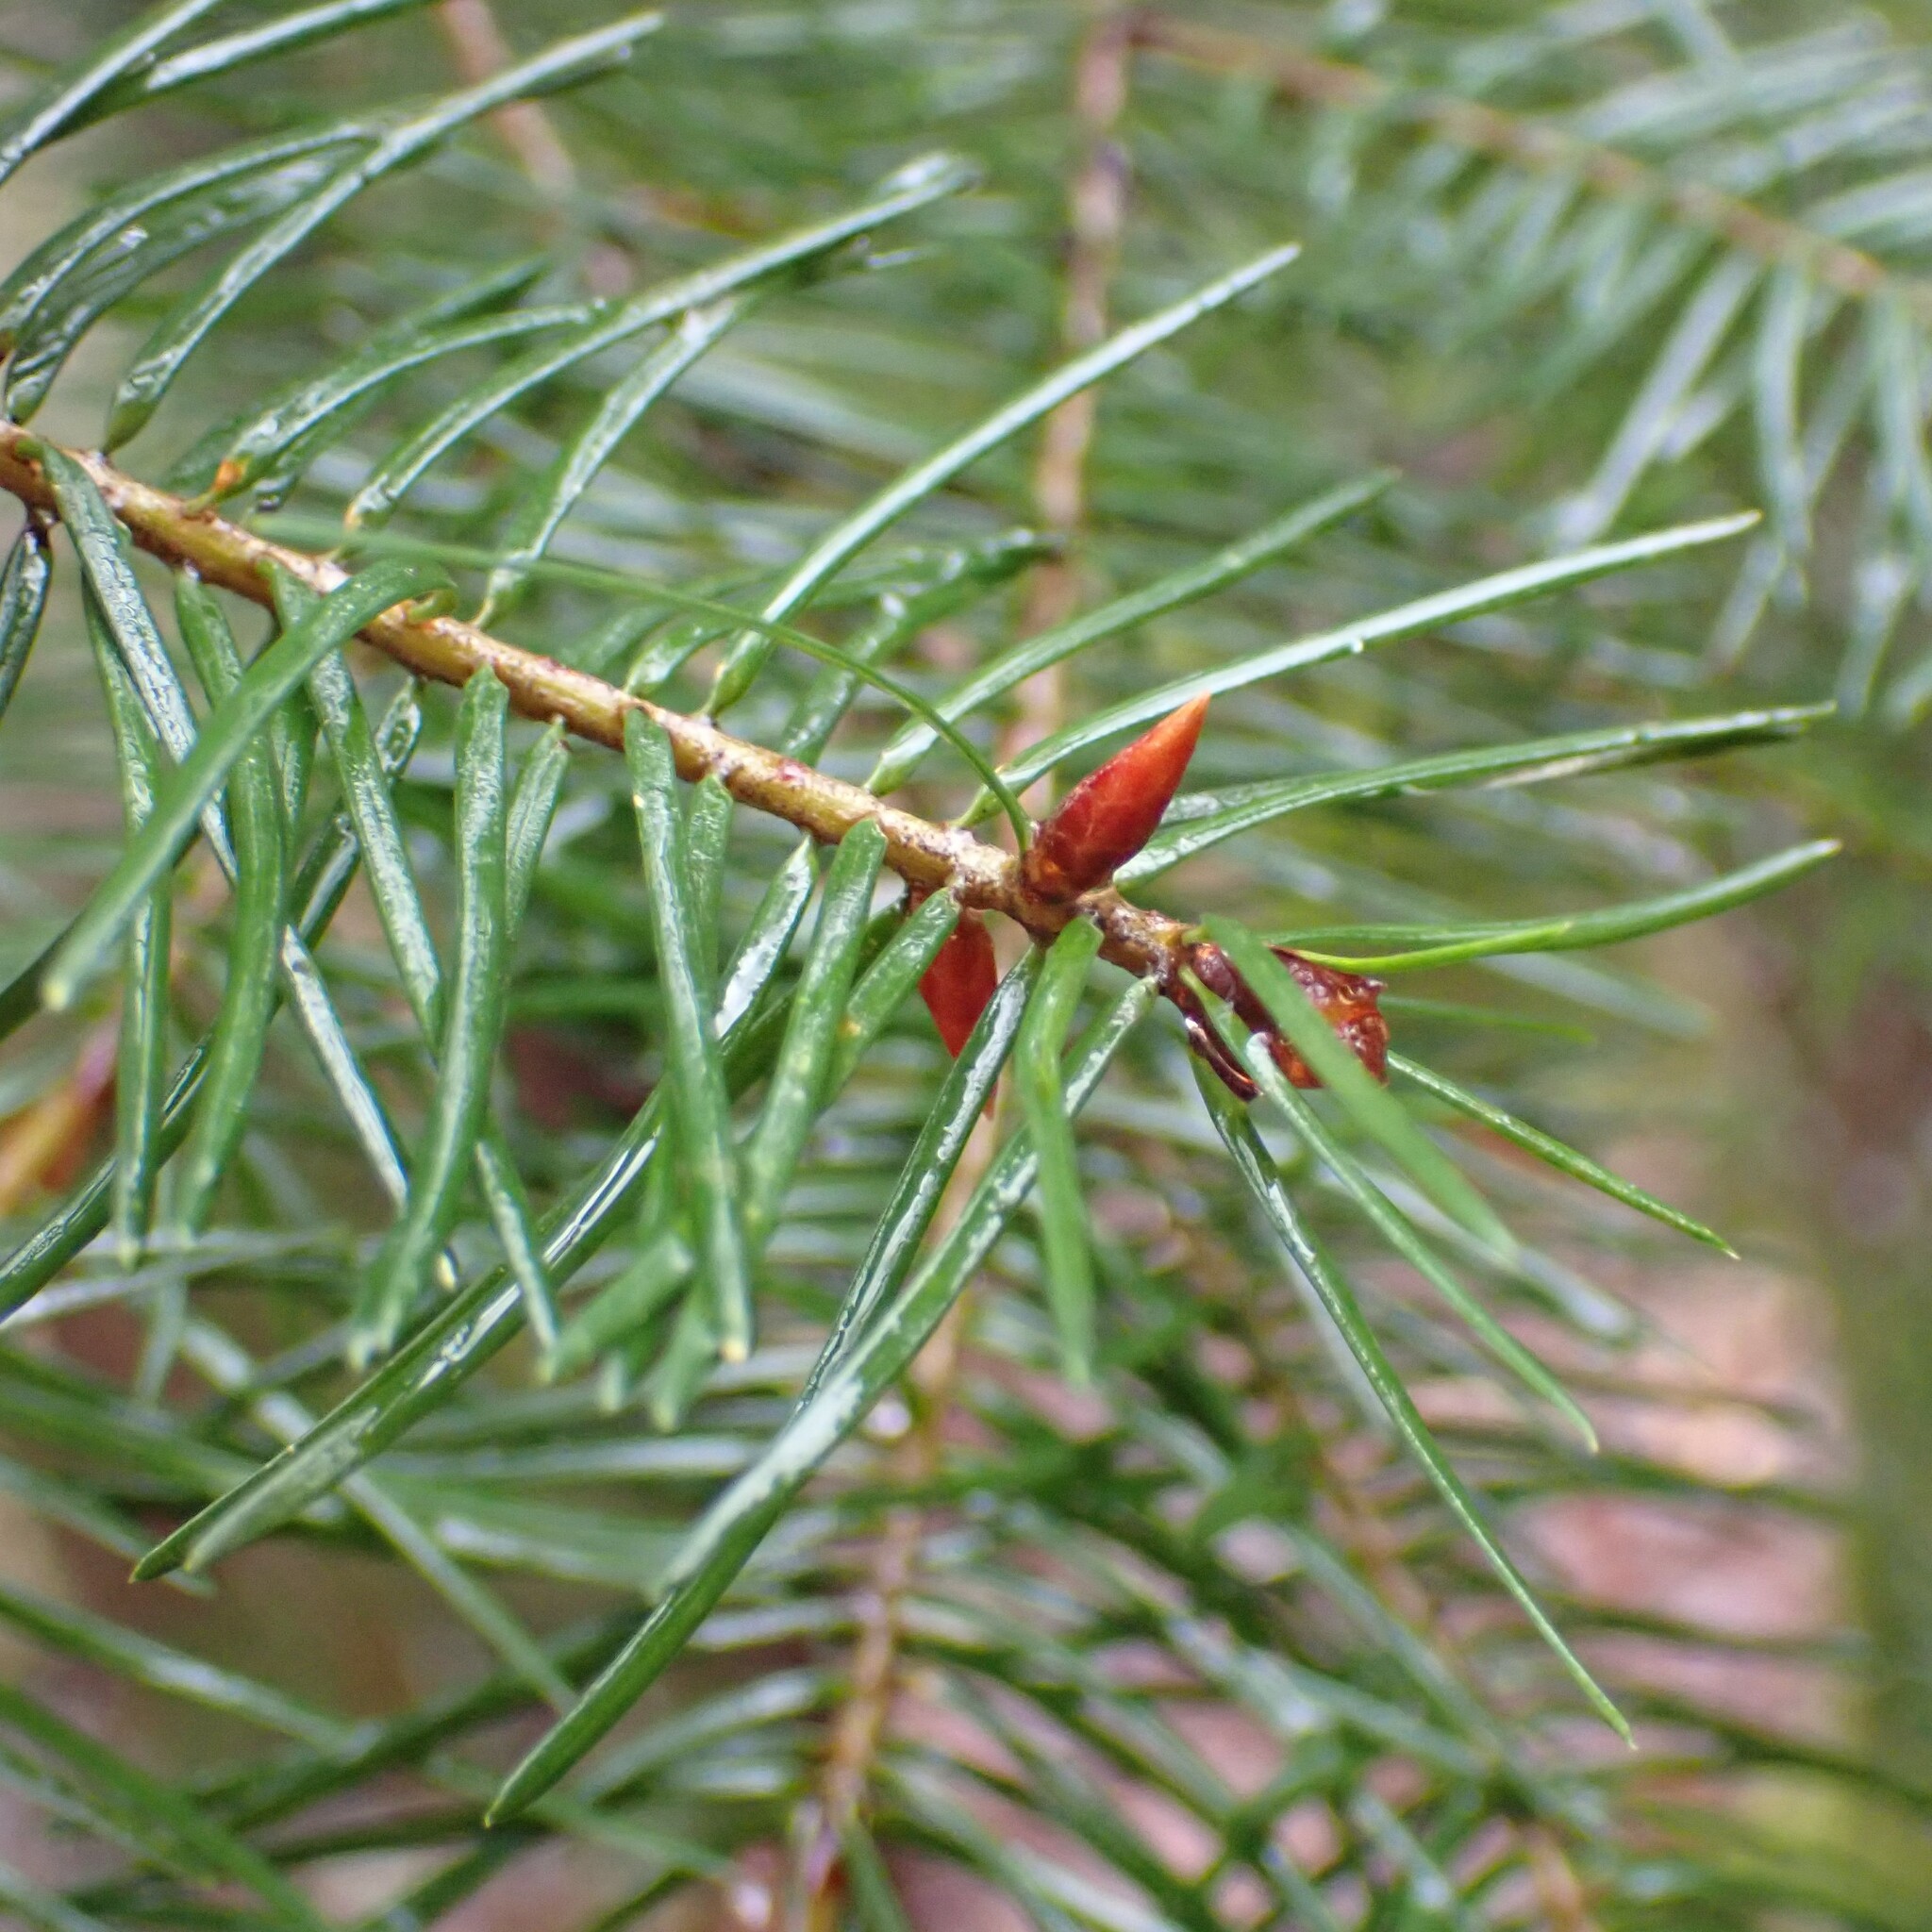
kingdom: Plantae
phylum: Tracheophyta
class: Pinopsida
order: Pinales
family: Pinaceae
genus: Pseudotsuga
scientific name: Pseudotsuga menziesii
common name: Douglas fir
